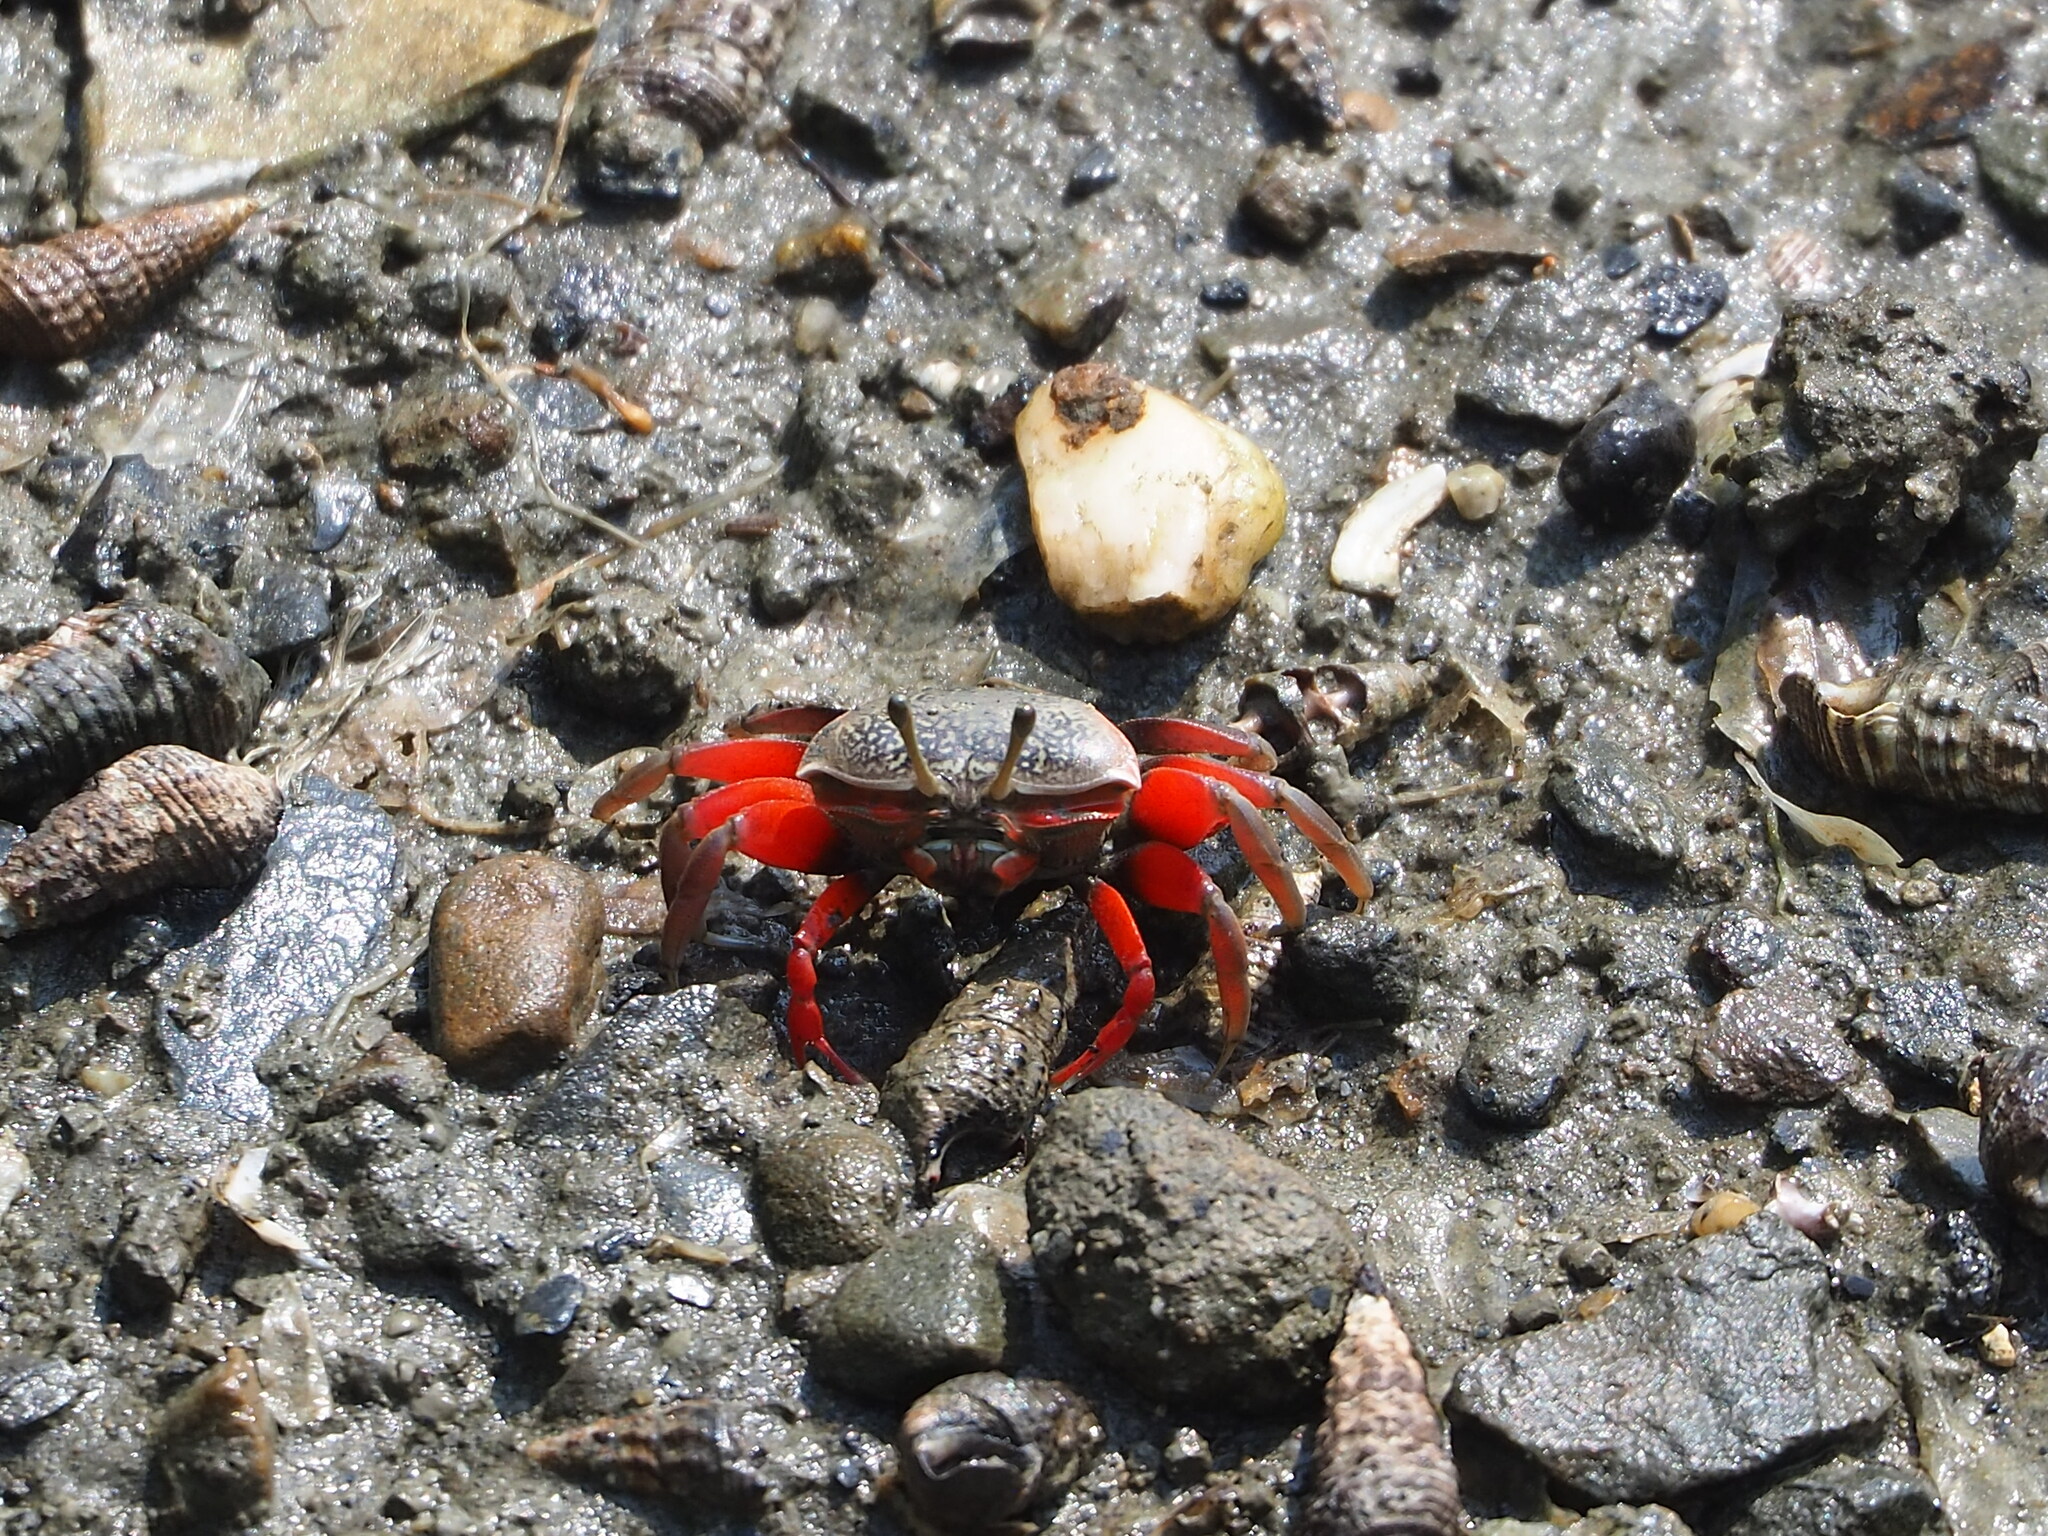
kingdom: Animalia
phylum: Arthropoda
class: Malacostraca
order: Decapoda
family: Ocypodidae
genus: Tubuca
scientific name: Tubuca arcuata
